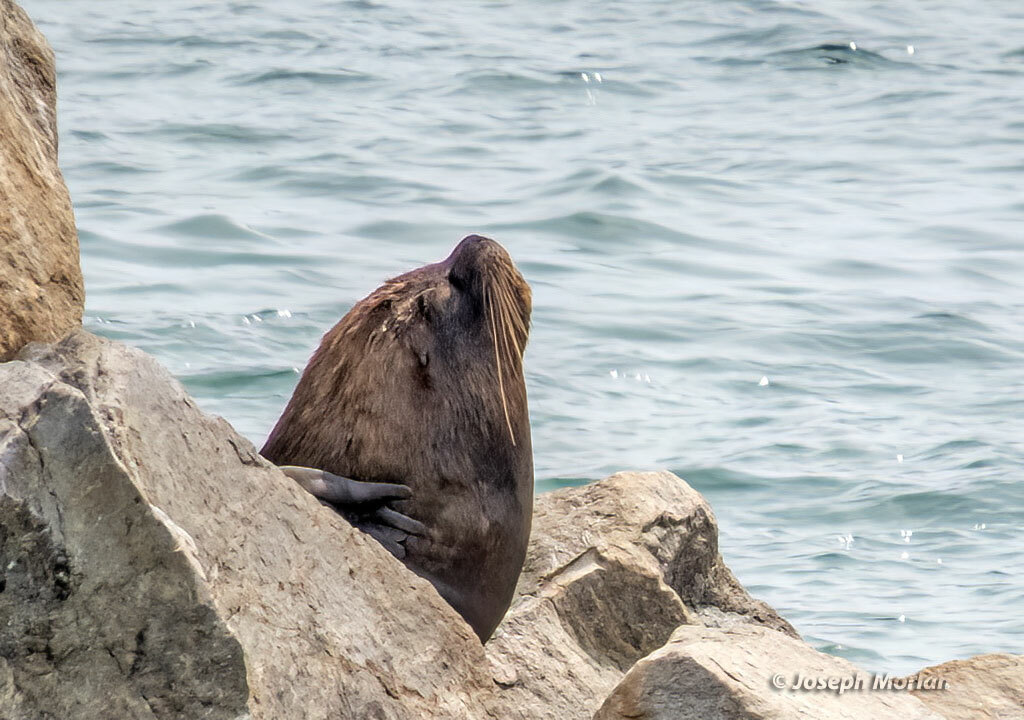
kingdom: Animalia
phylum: Chordata
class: Mammalia
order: Carnivora
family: Otariidae
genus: Otaria
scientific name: Otaria byronia
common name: South american sea lion
